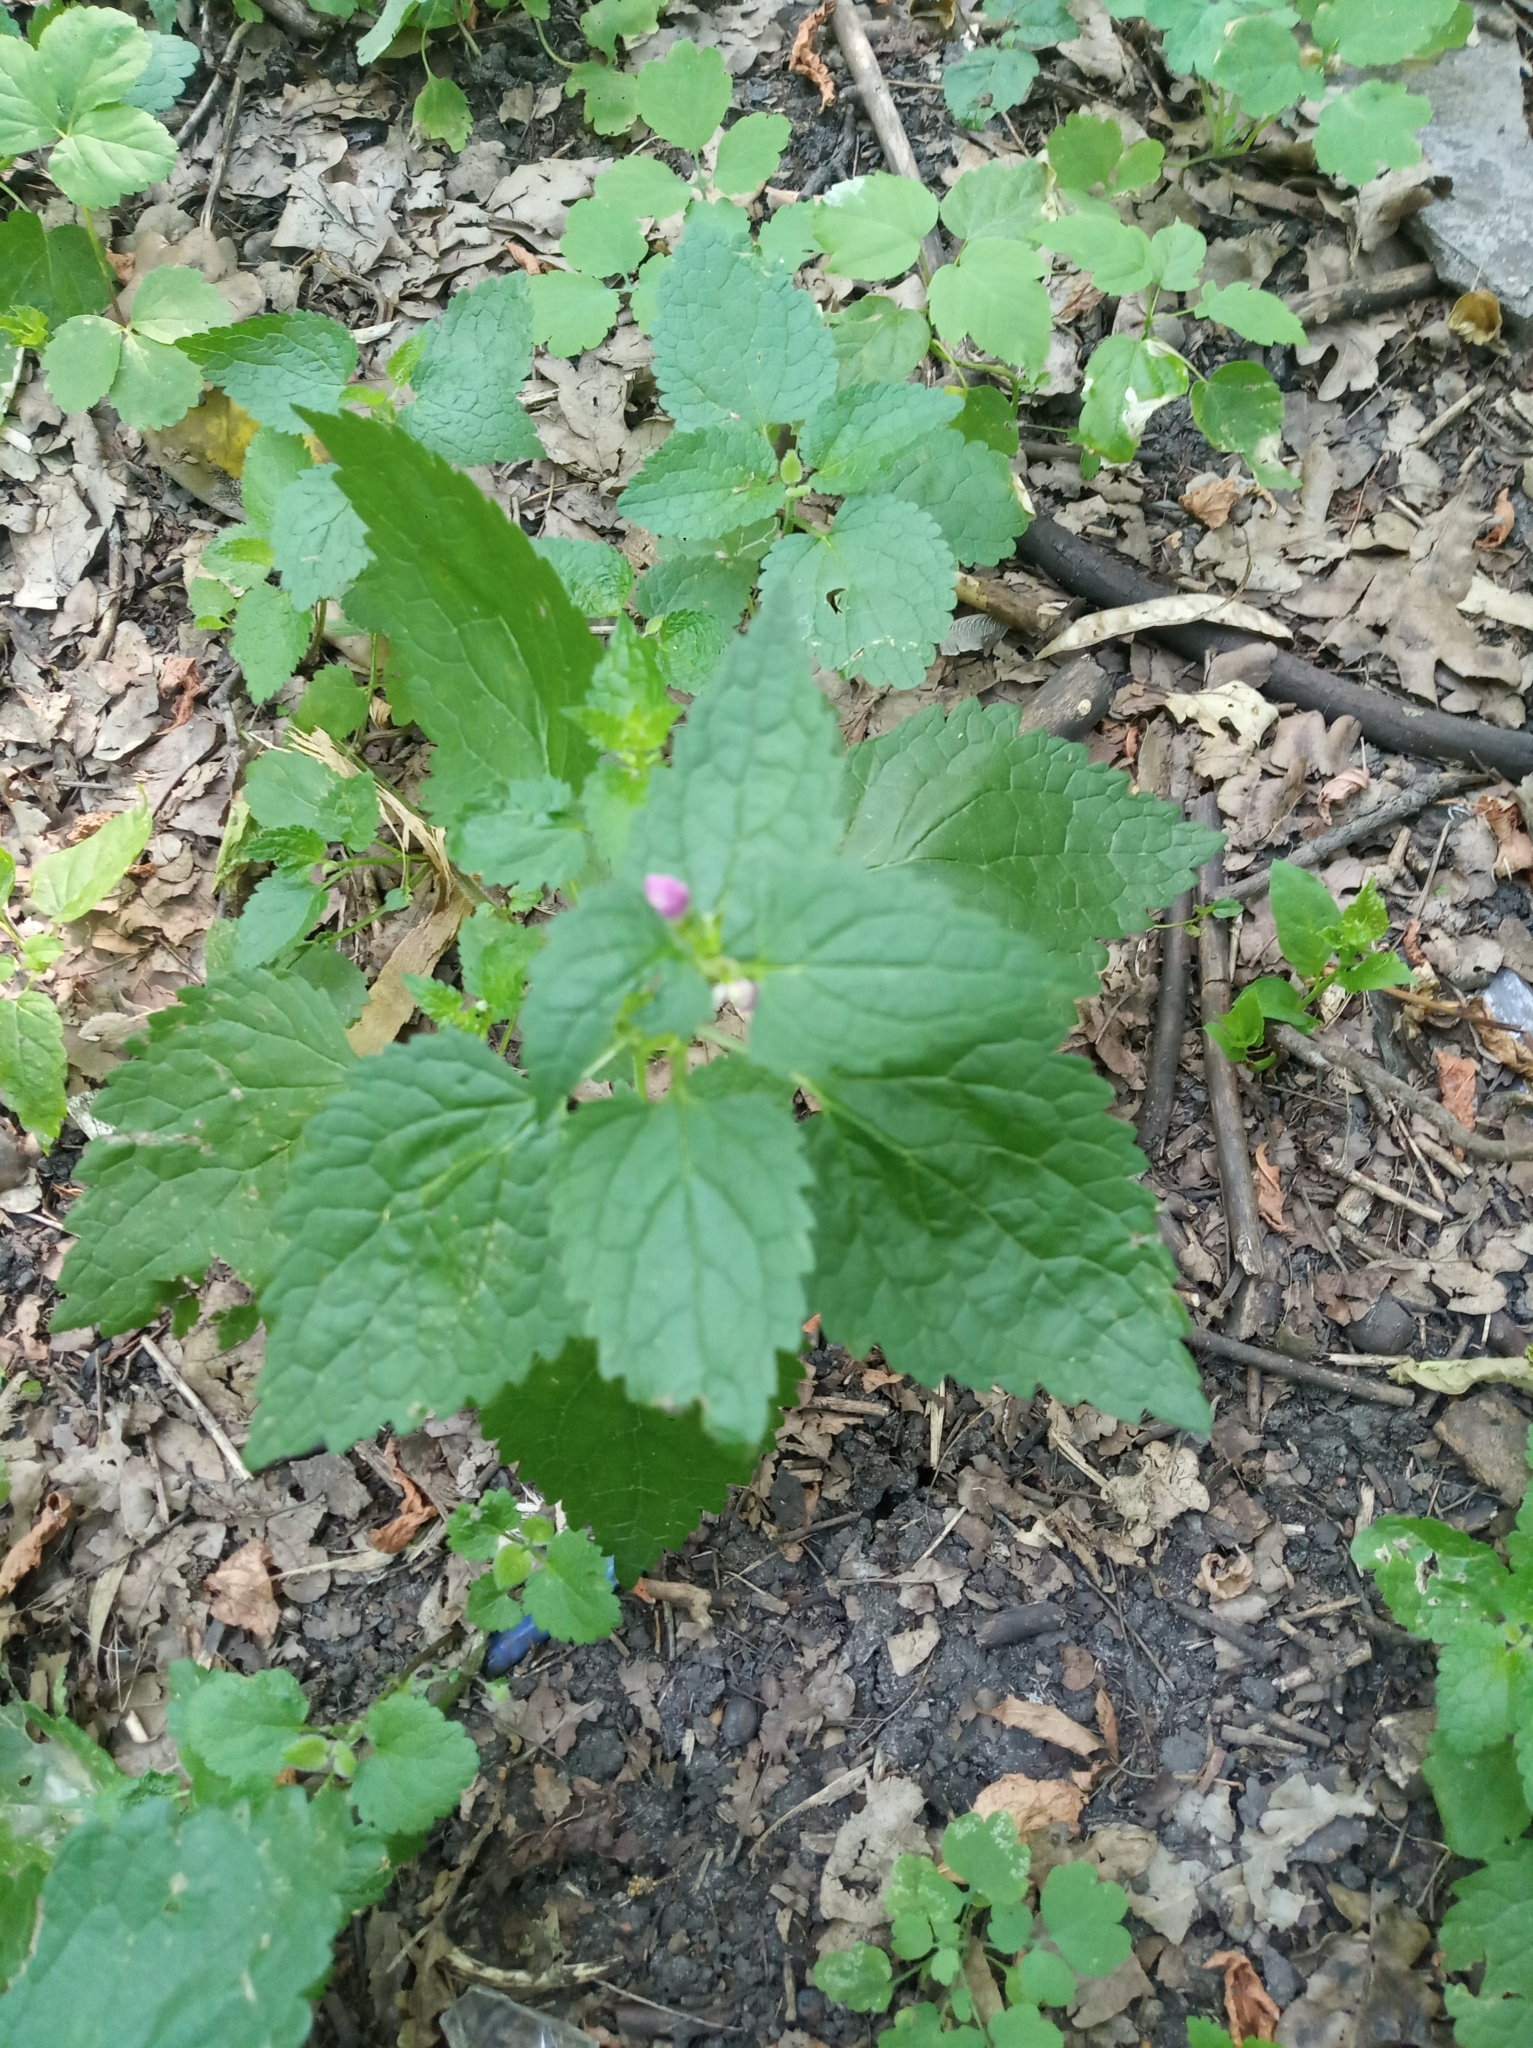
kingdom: Plantae
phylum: Tracheophyta
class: Magnoliopsida
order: Lamiales
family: Lamiaceae
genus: Lamium
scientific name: Lamium maculatum
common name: Spotted dead-nettle
